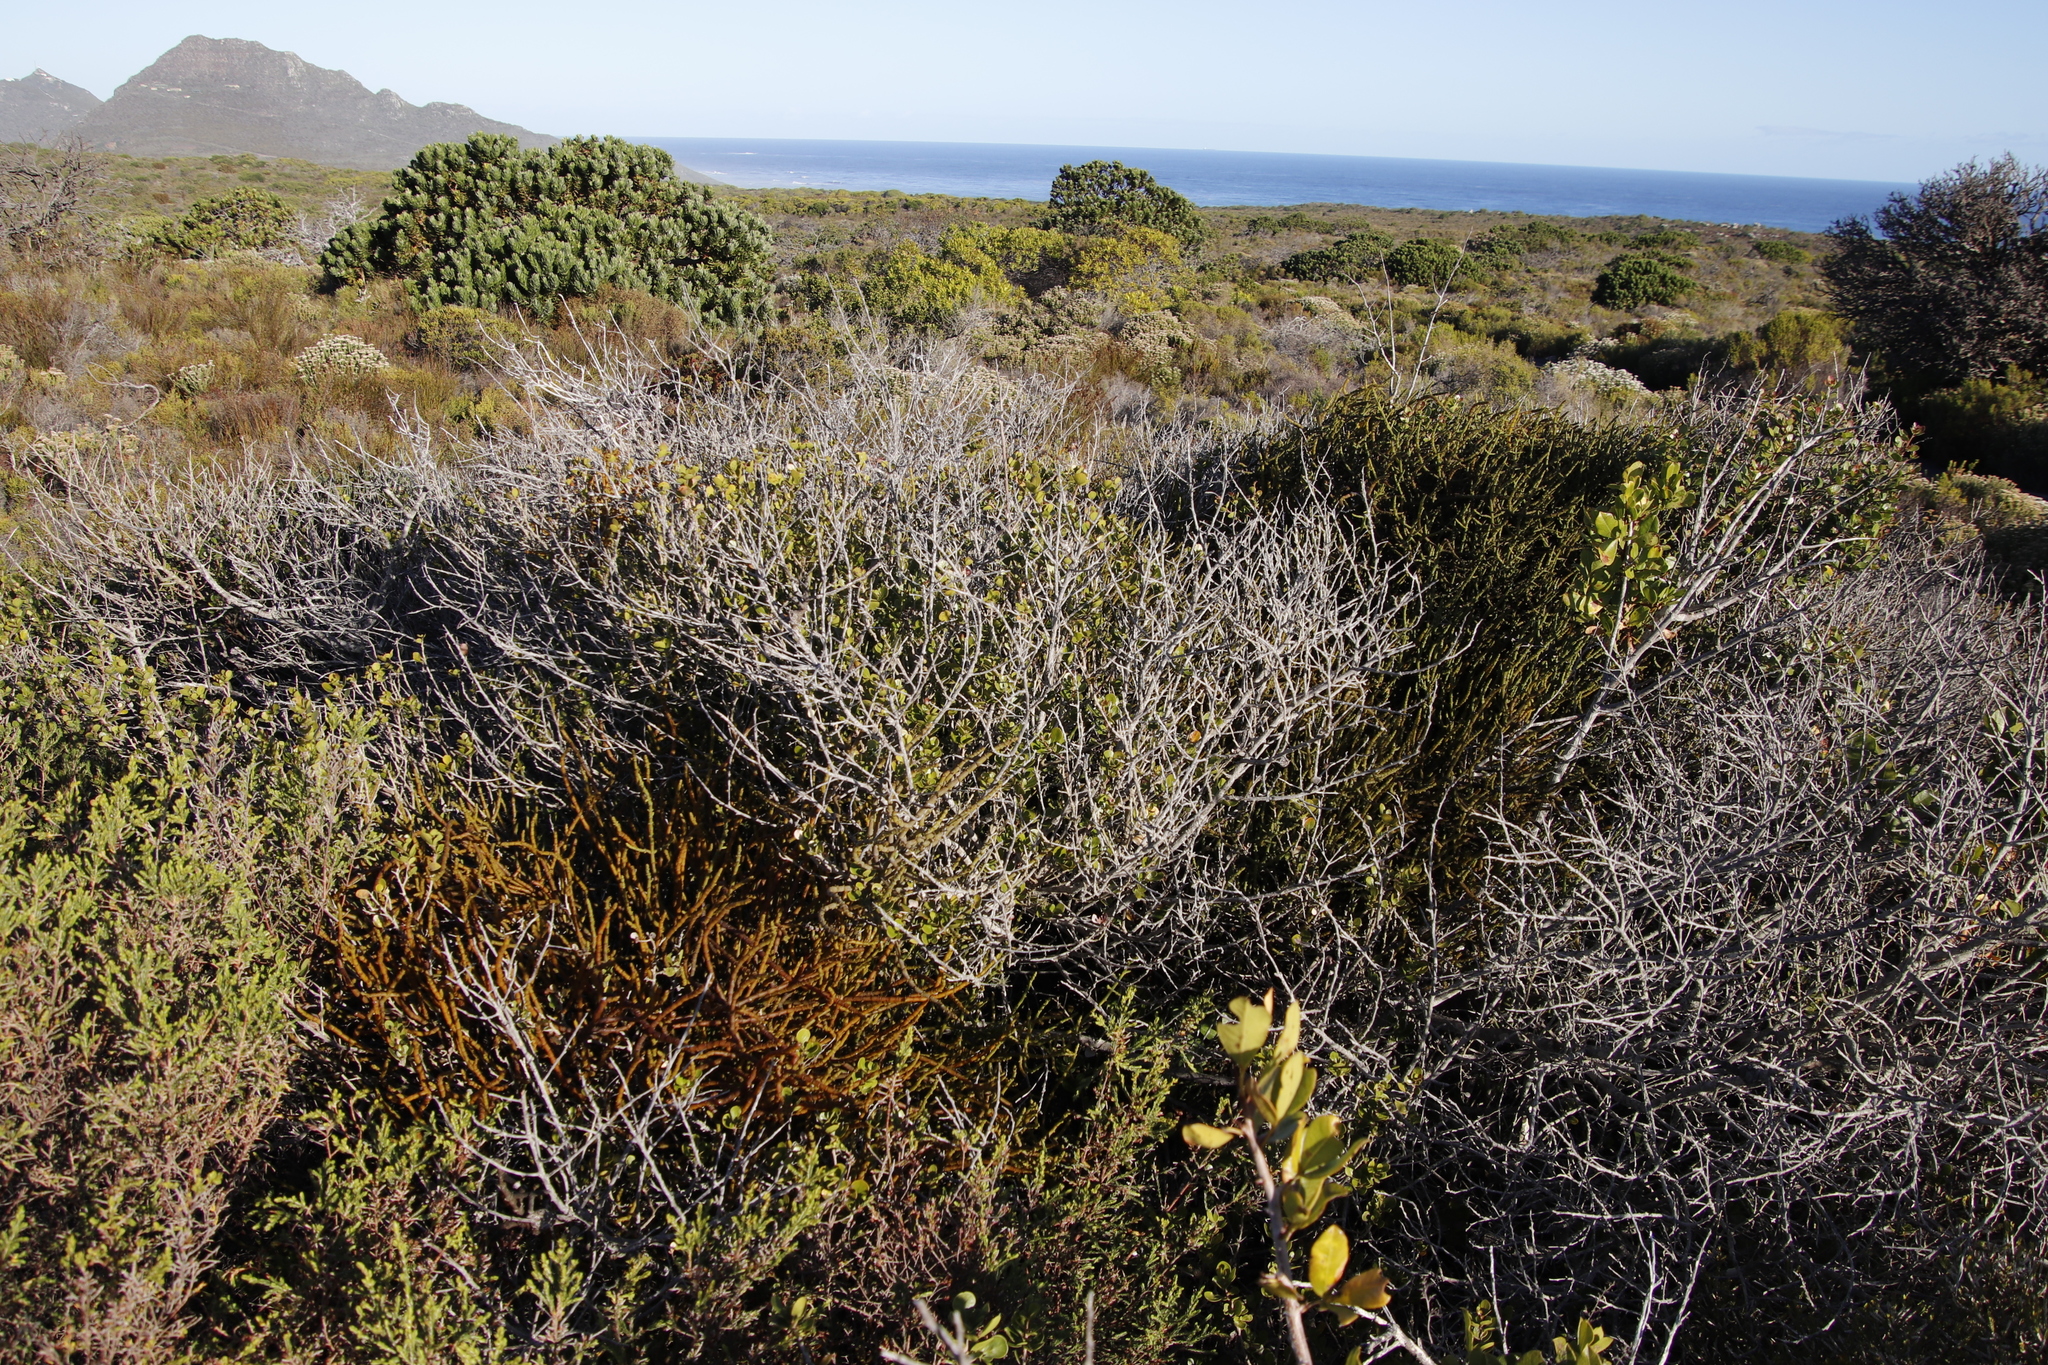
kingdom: Plantae
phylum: Tracheophyta
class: Magnoliopsida
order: Santalales
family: Viscaceae
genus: Viscum
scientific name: Viscum capense
